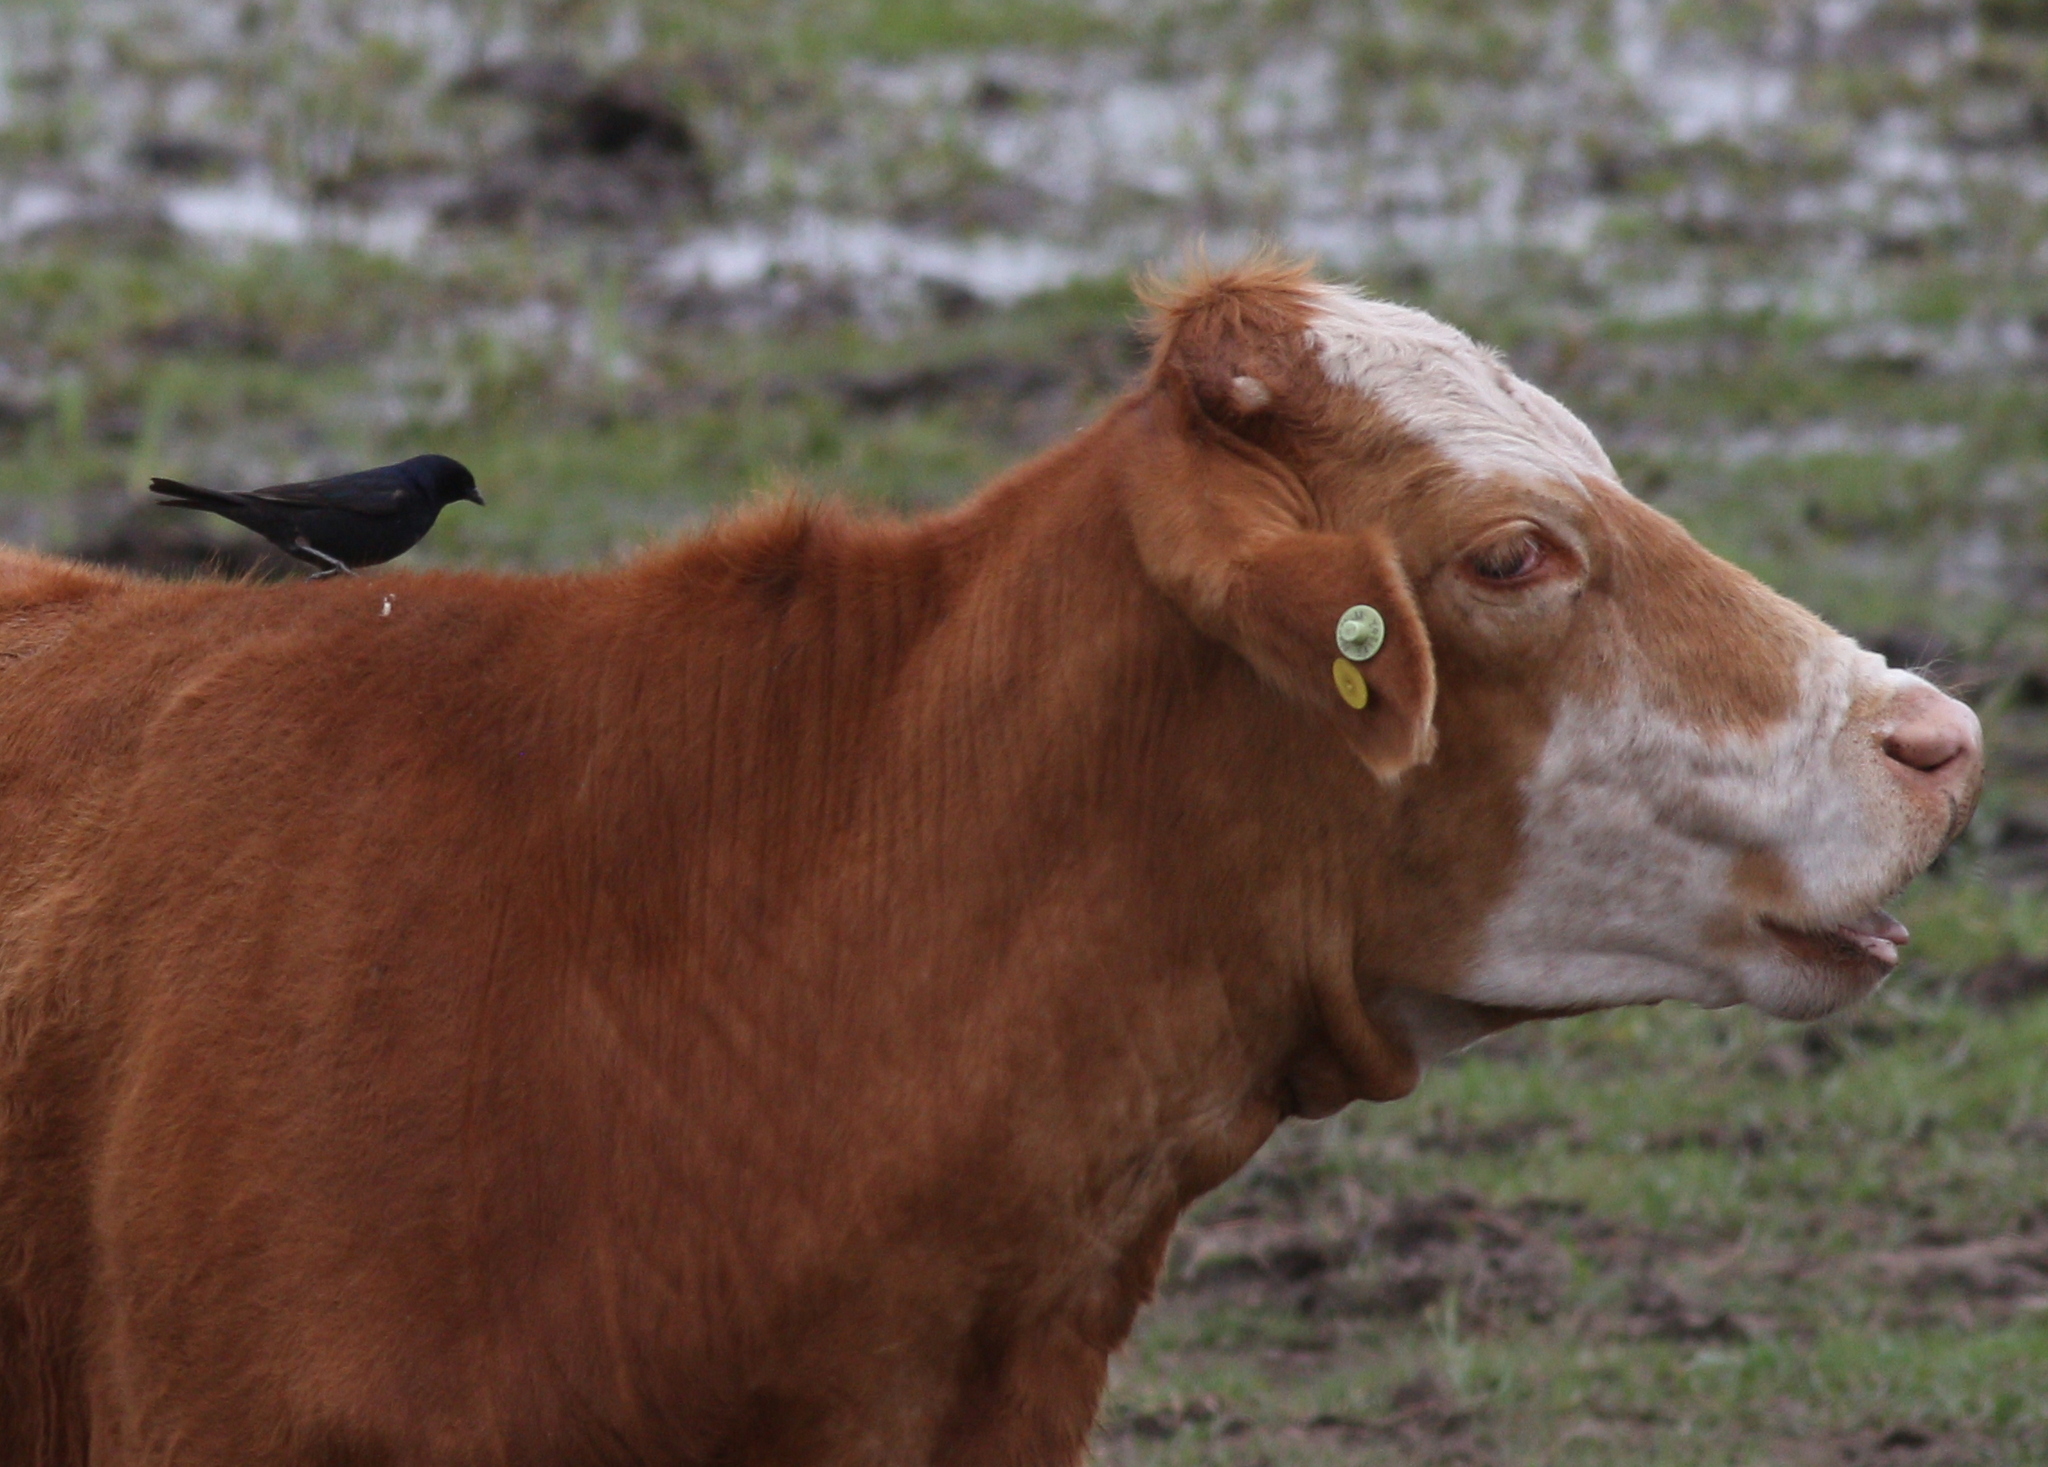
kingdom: Animalia
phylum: Chordata
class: Aves
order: Passeriformes
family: Icteridae
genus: Molothrus
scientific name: Molothrus bonariensis
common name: Shiny cowbird
